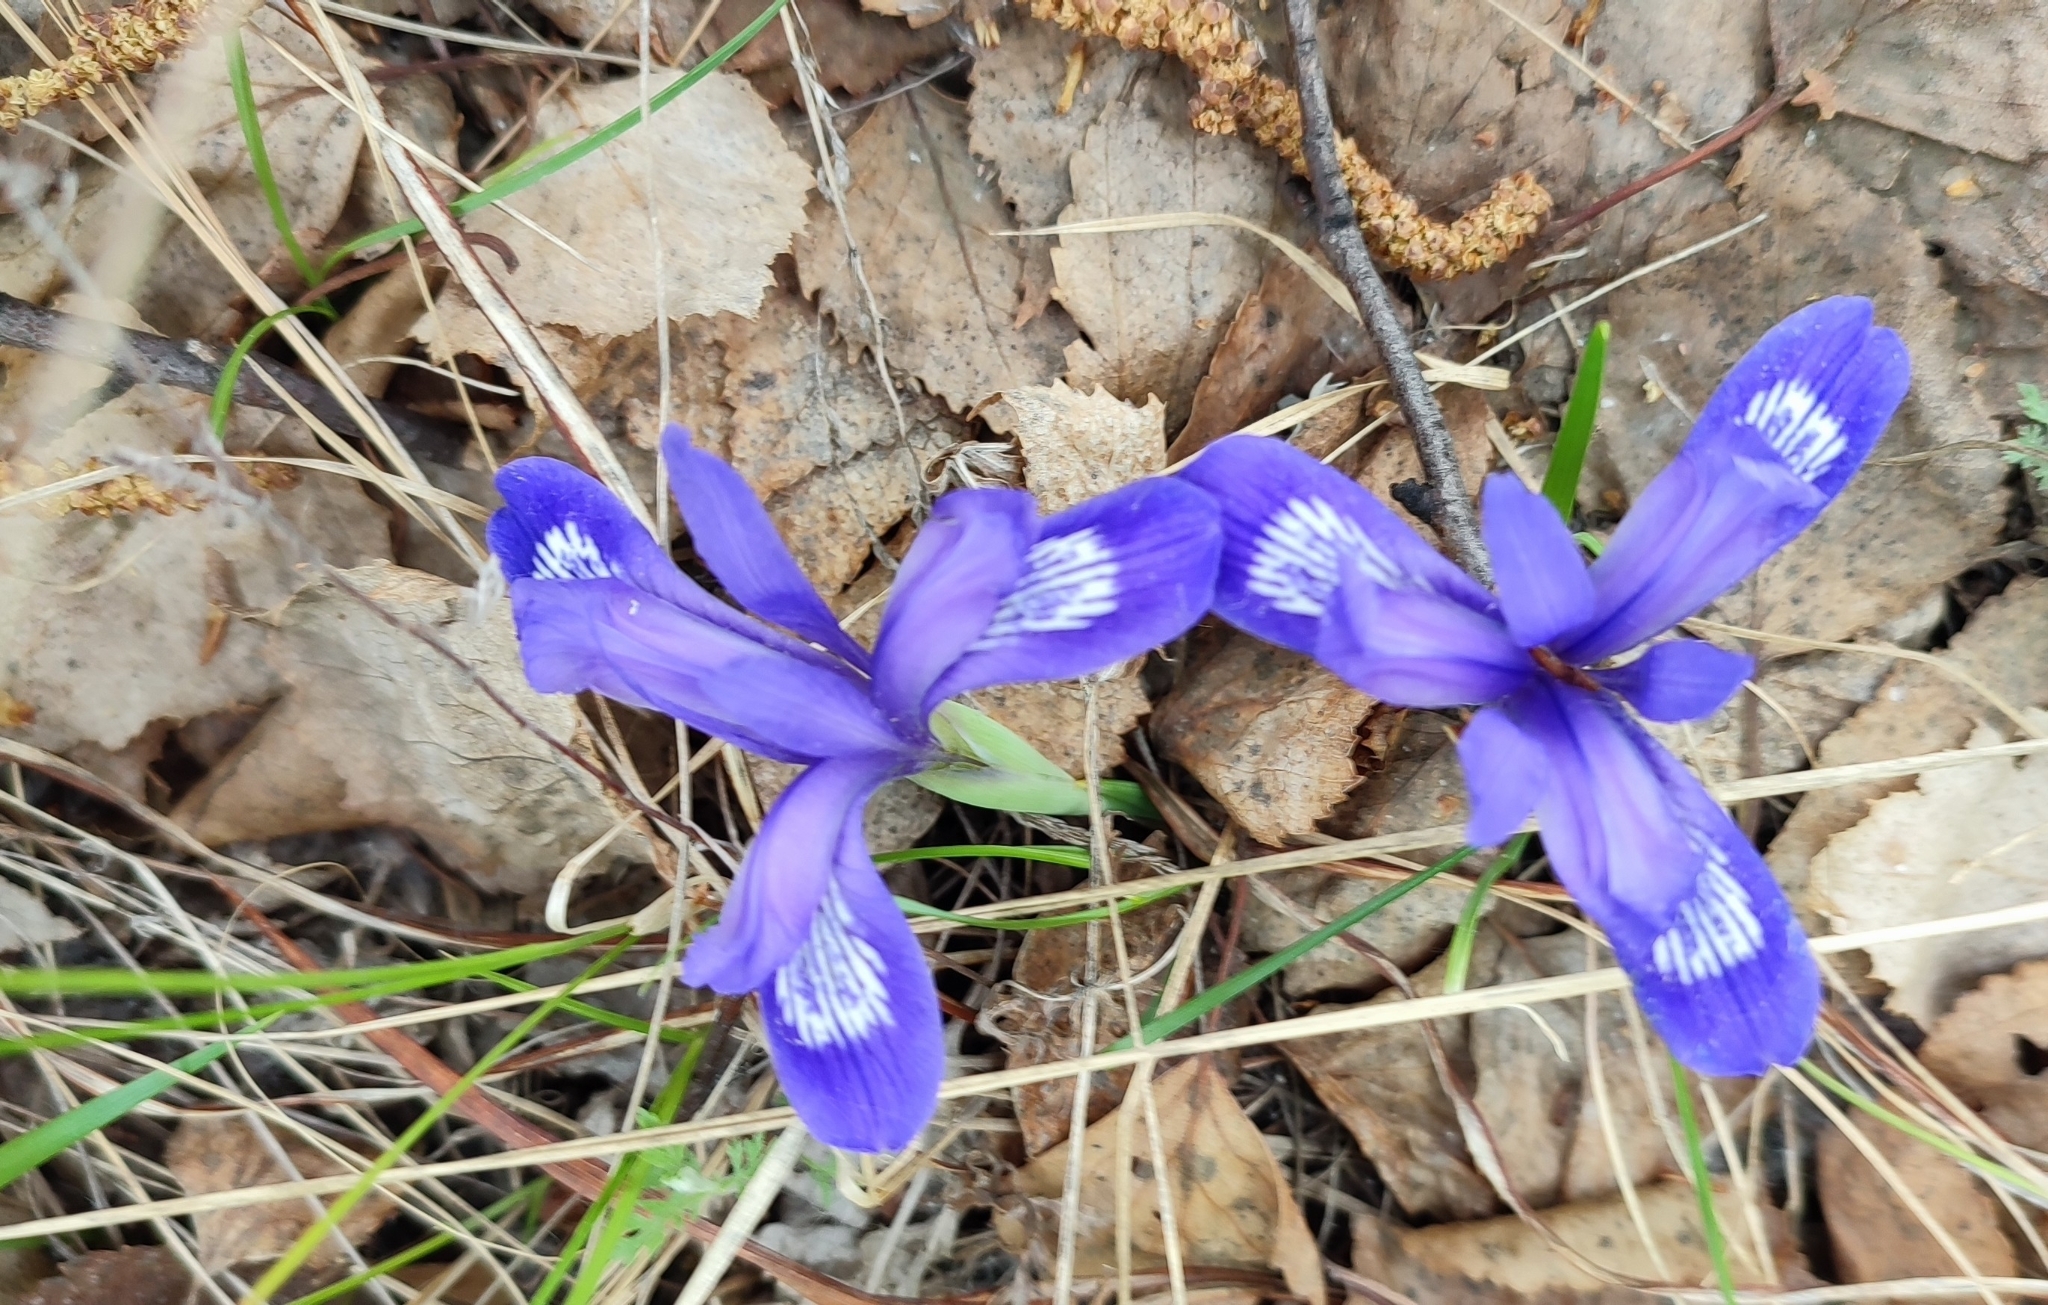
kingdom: Plantae
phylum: Tracheophyta
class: Liliopsida
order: Asparagales
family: Iridaceae
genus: Iris
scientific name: Iris ruthenica
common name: Purple-bract iris
